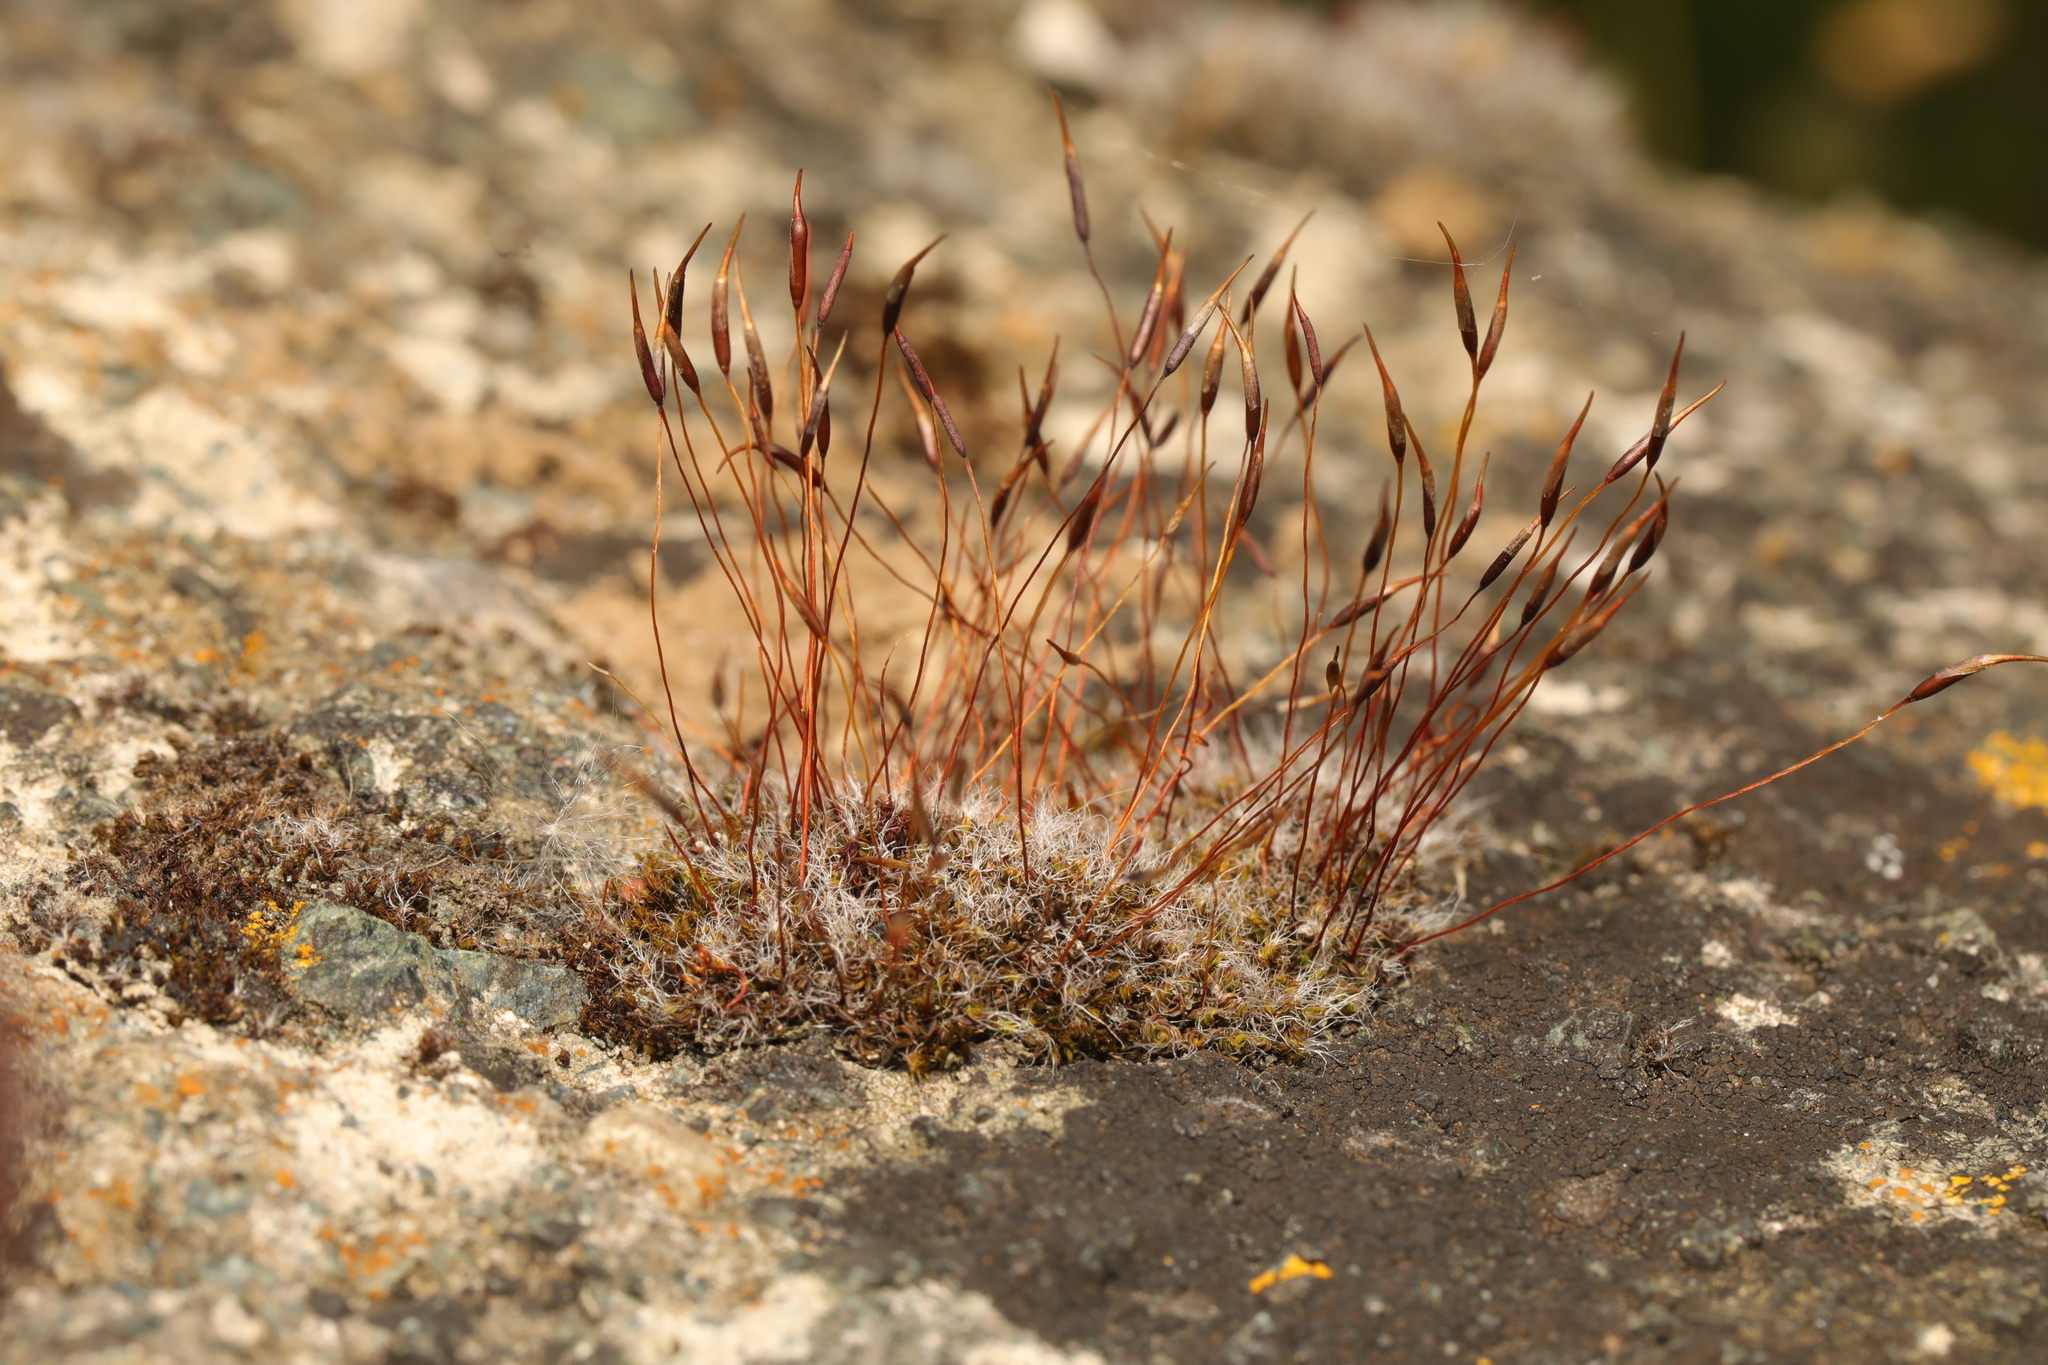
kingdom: Plantae
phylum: Bryophyta
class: Bryopsida
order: Pottiales
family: Pottiaceae
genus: Tortula
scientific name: Tortula muralis
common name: Wall screw-moss
